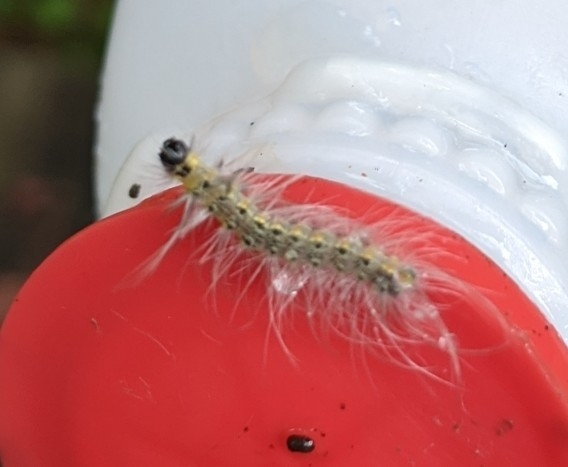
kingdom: Animalia
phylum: Arthropoda
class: Insecta
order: Lepidoptera
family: Erebidae
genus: Hyphantria
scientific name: Hyphantria cunea
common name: American white moth
